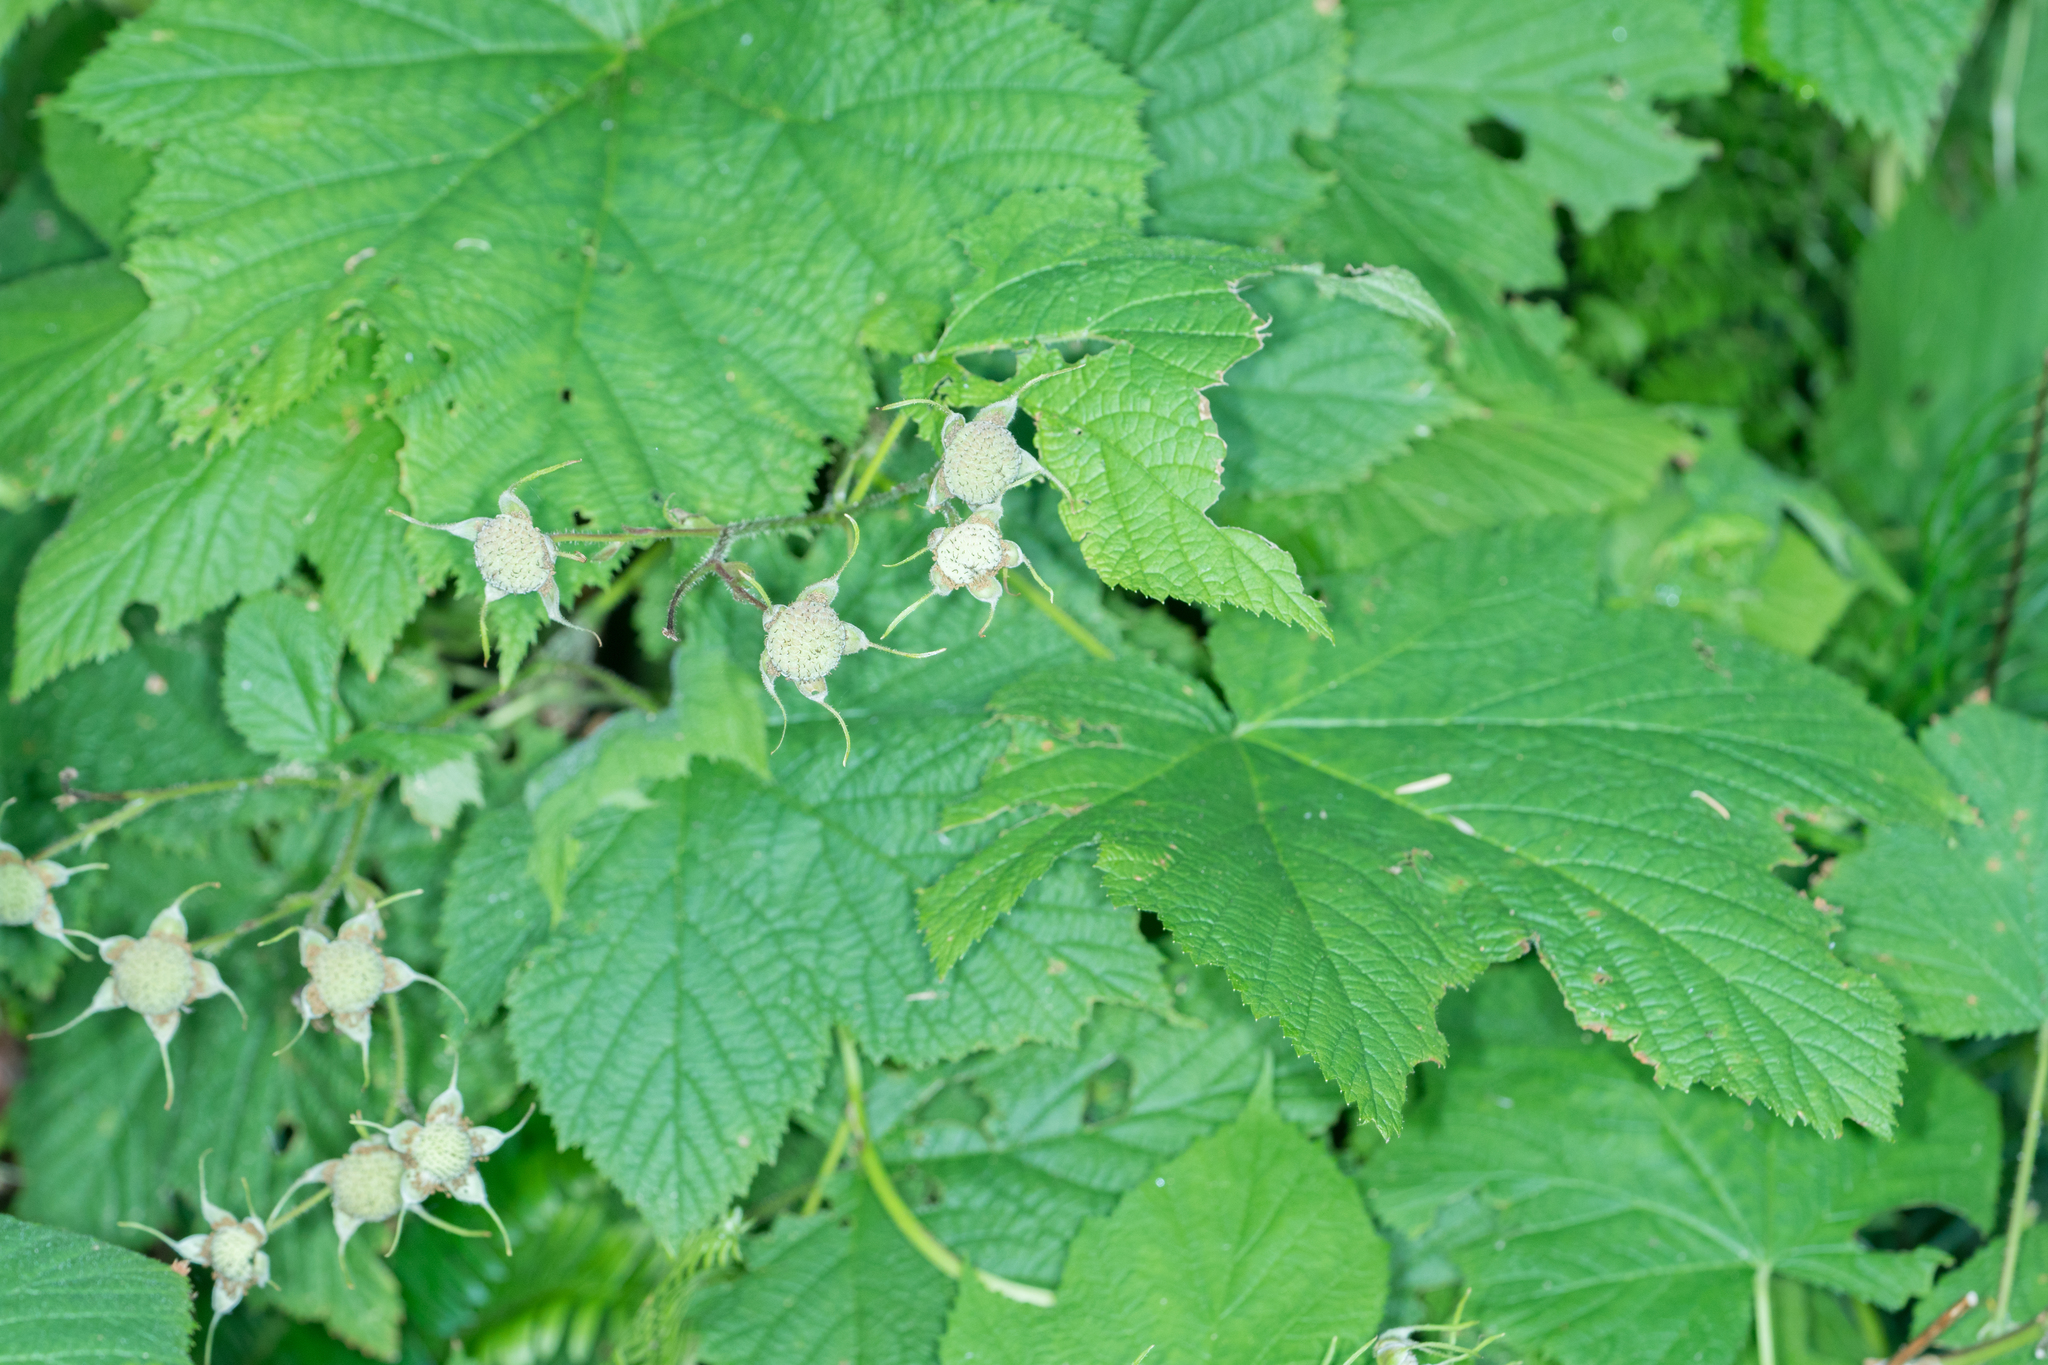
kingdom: Plantae
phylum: Tracheophyta
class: Magnoliopsida
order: Rosales
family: Rosaceae
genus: Rubus
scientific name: Rubus parviflorus
